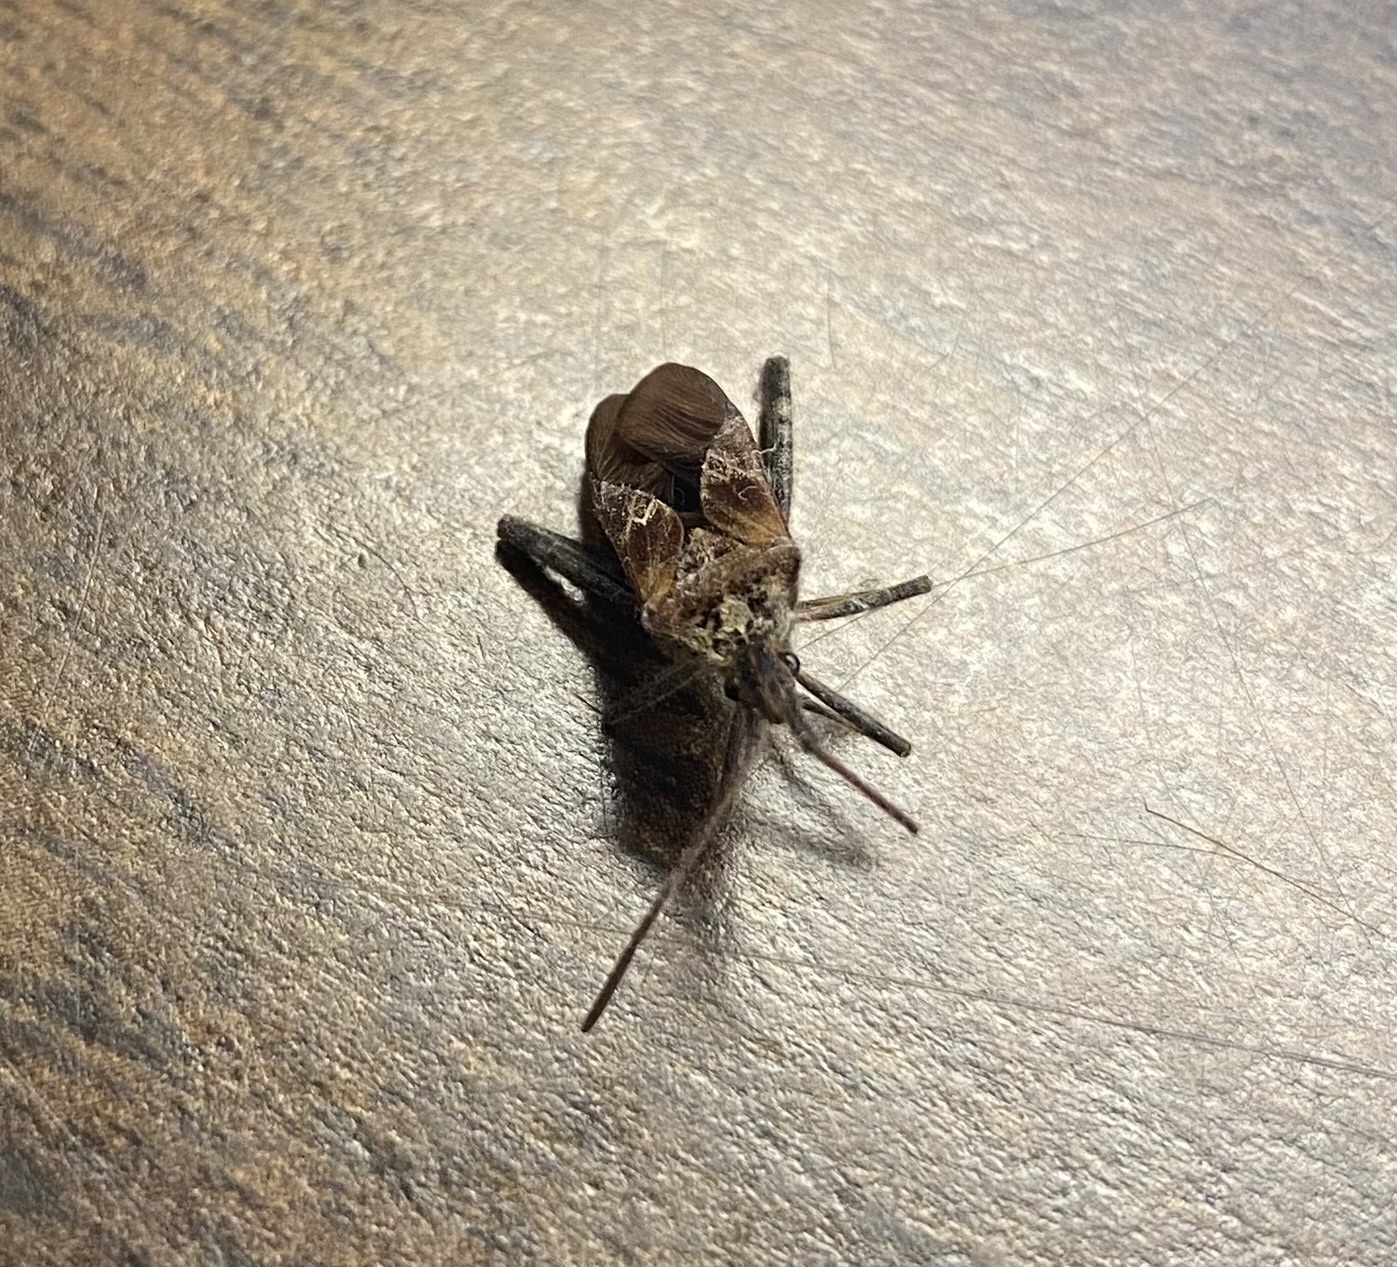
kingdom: Animalia
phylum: Arthropoda
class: Insecta
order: Hemiptera
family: Coreidae
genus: Leptoglossus
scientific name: Leptoglossus occidentalis
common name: Western conifer-seed bug
